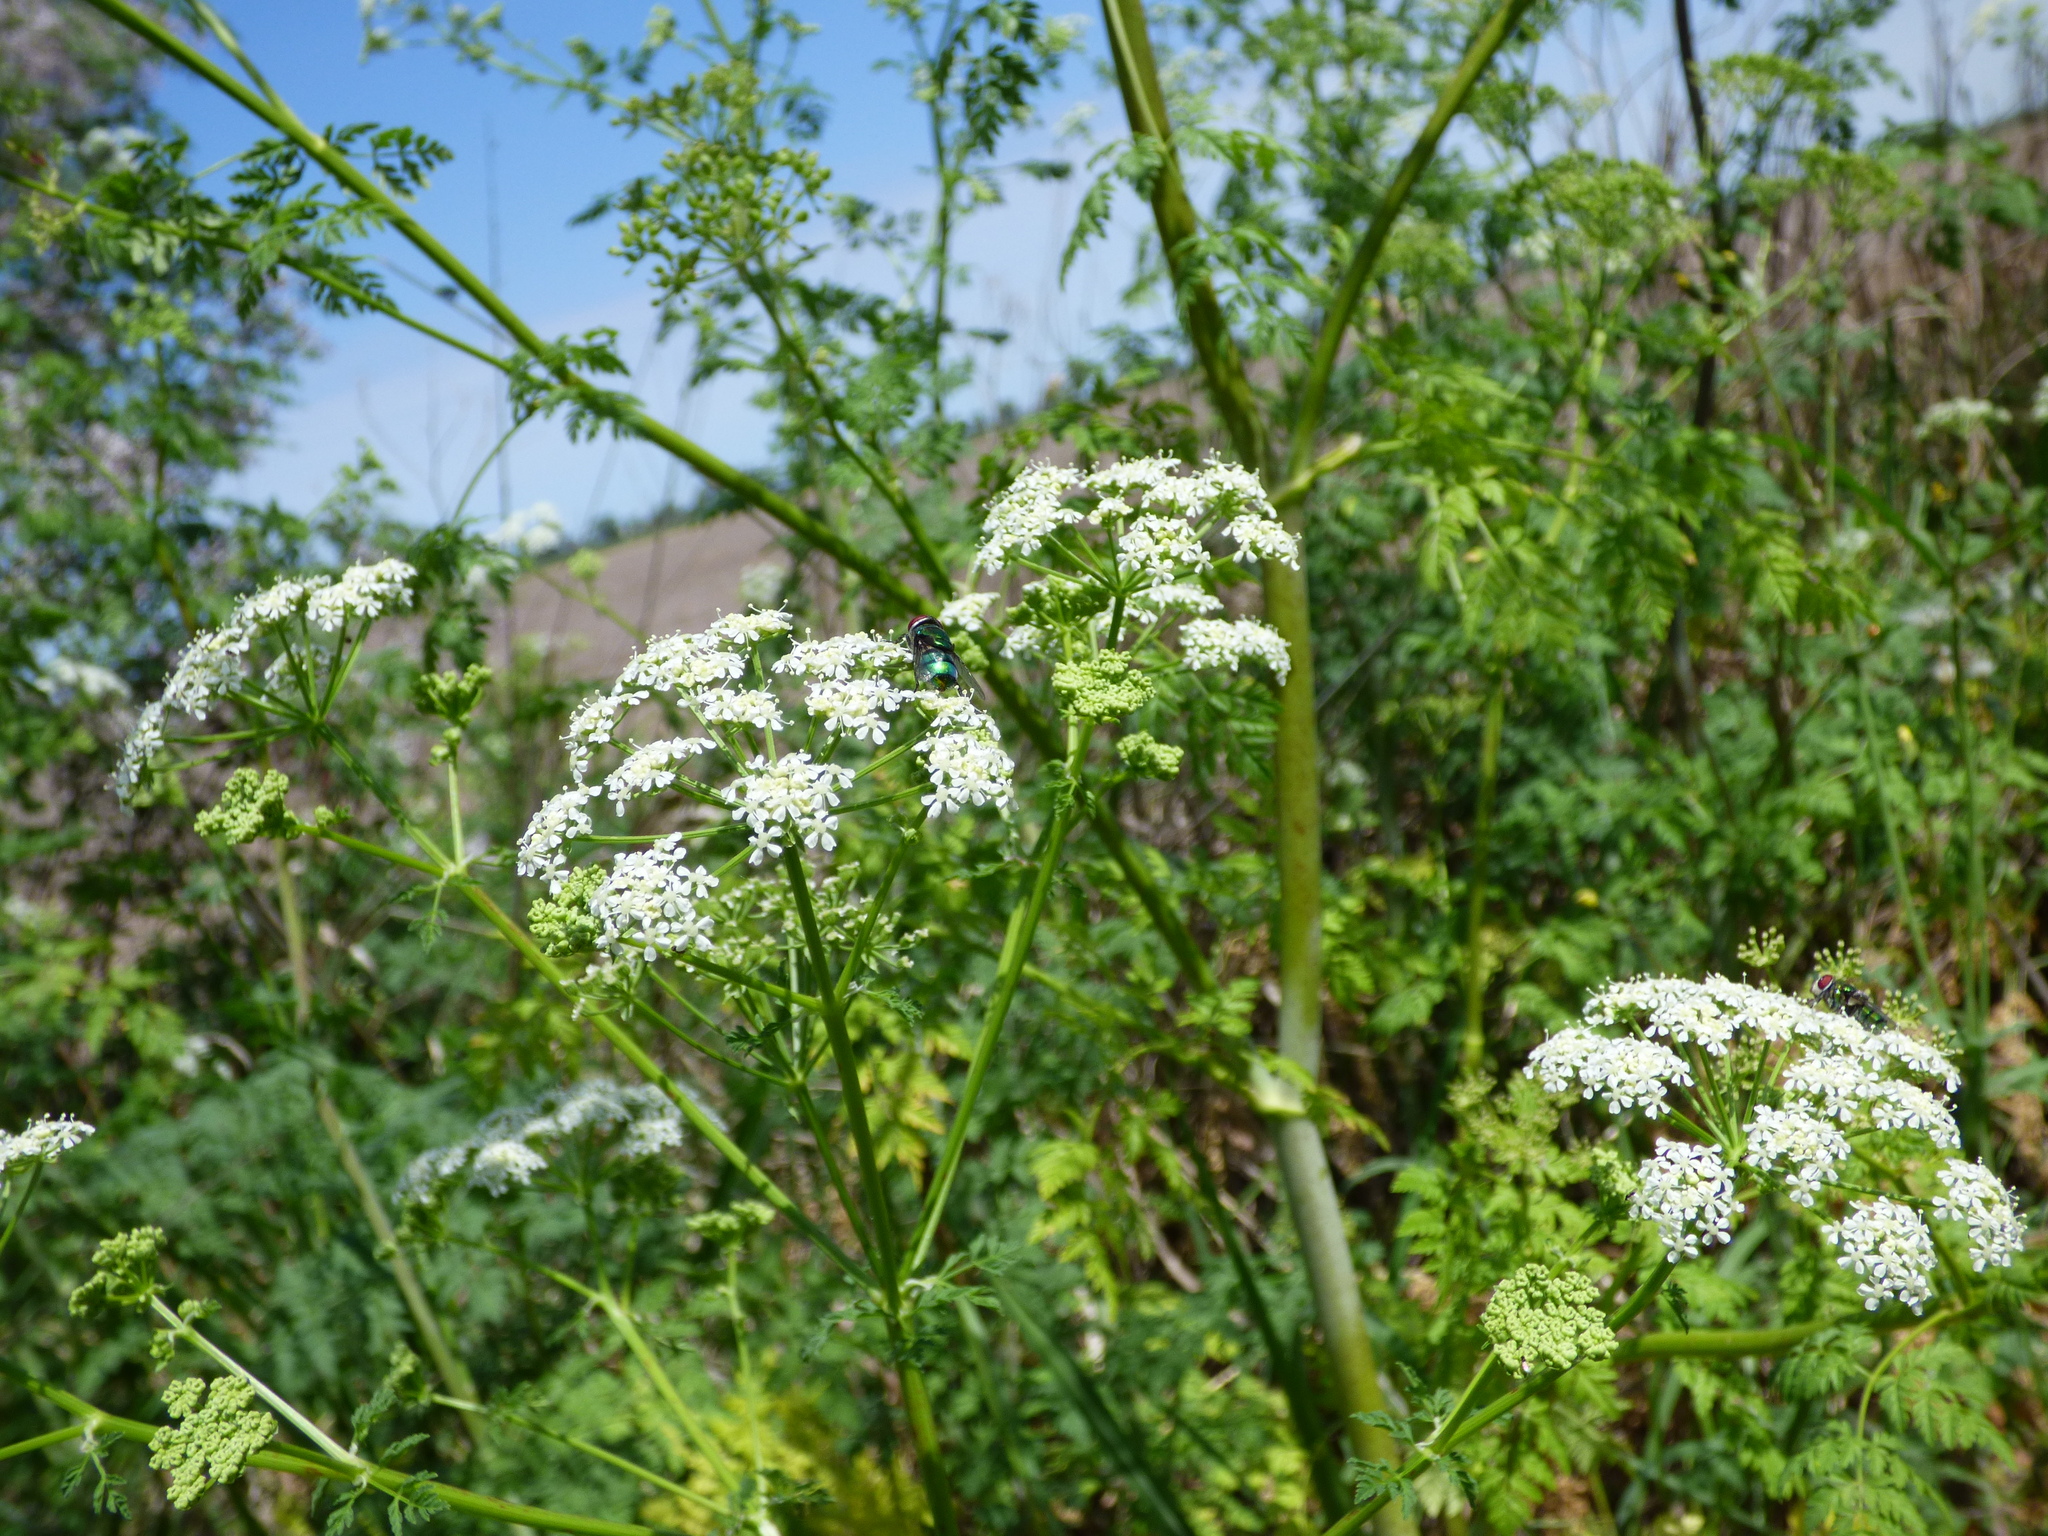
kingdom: Plantae
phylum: Tracheophyta
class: Magnoliopsida
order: Apiales
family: Apiaceae
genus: Conium
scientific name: Conium maculatum
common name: Hemlock
